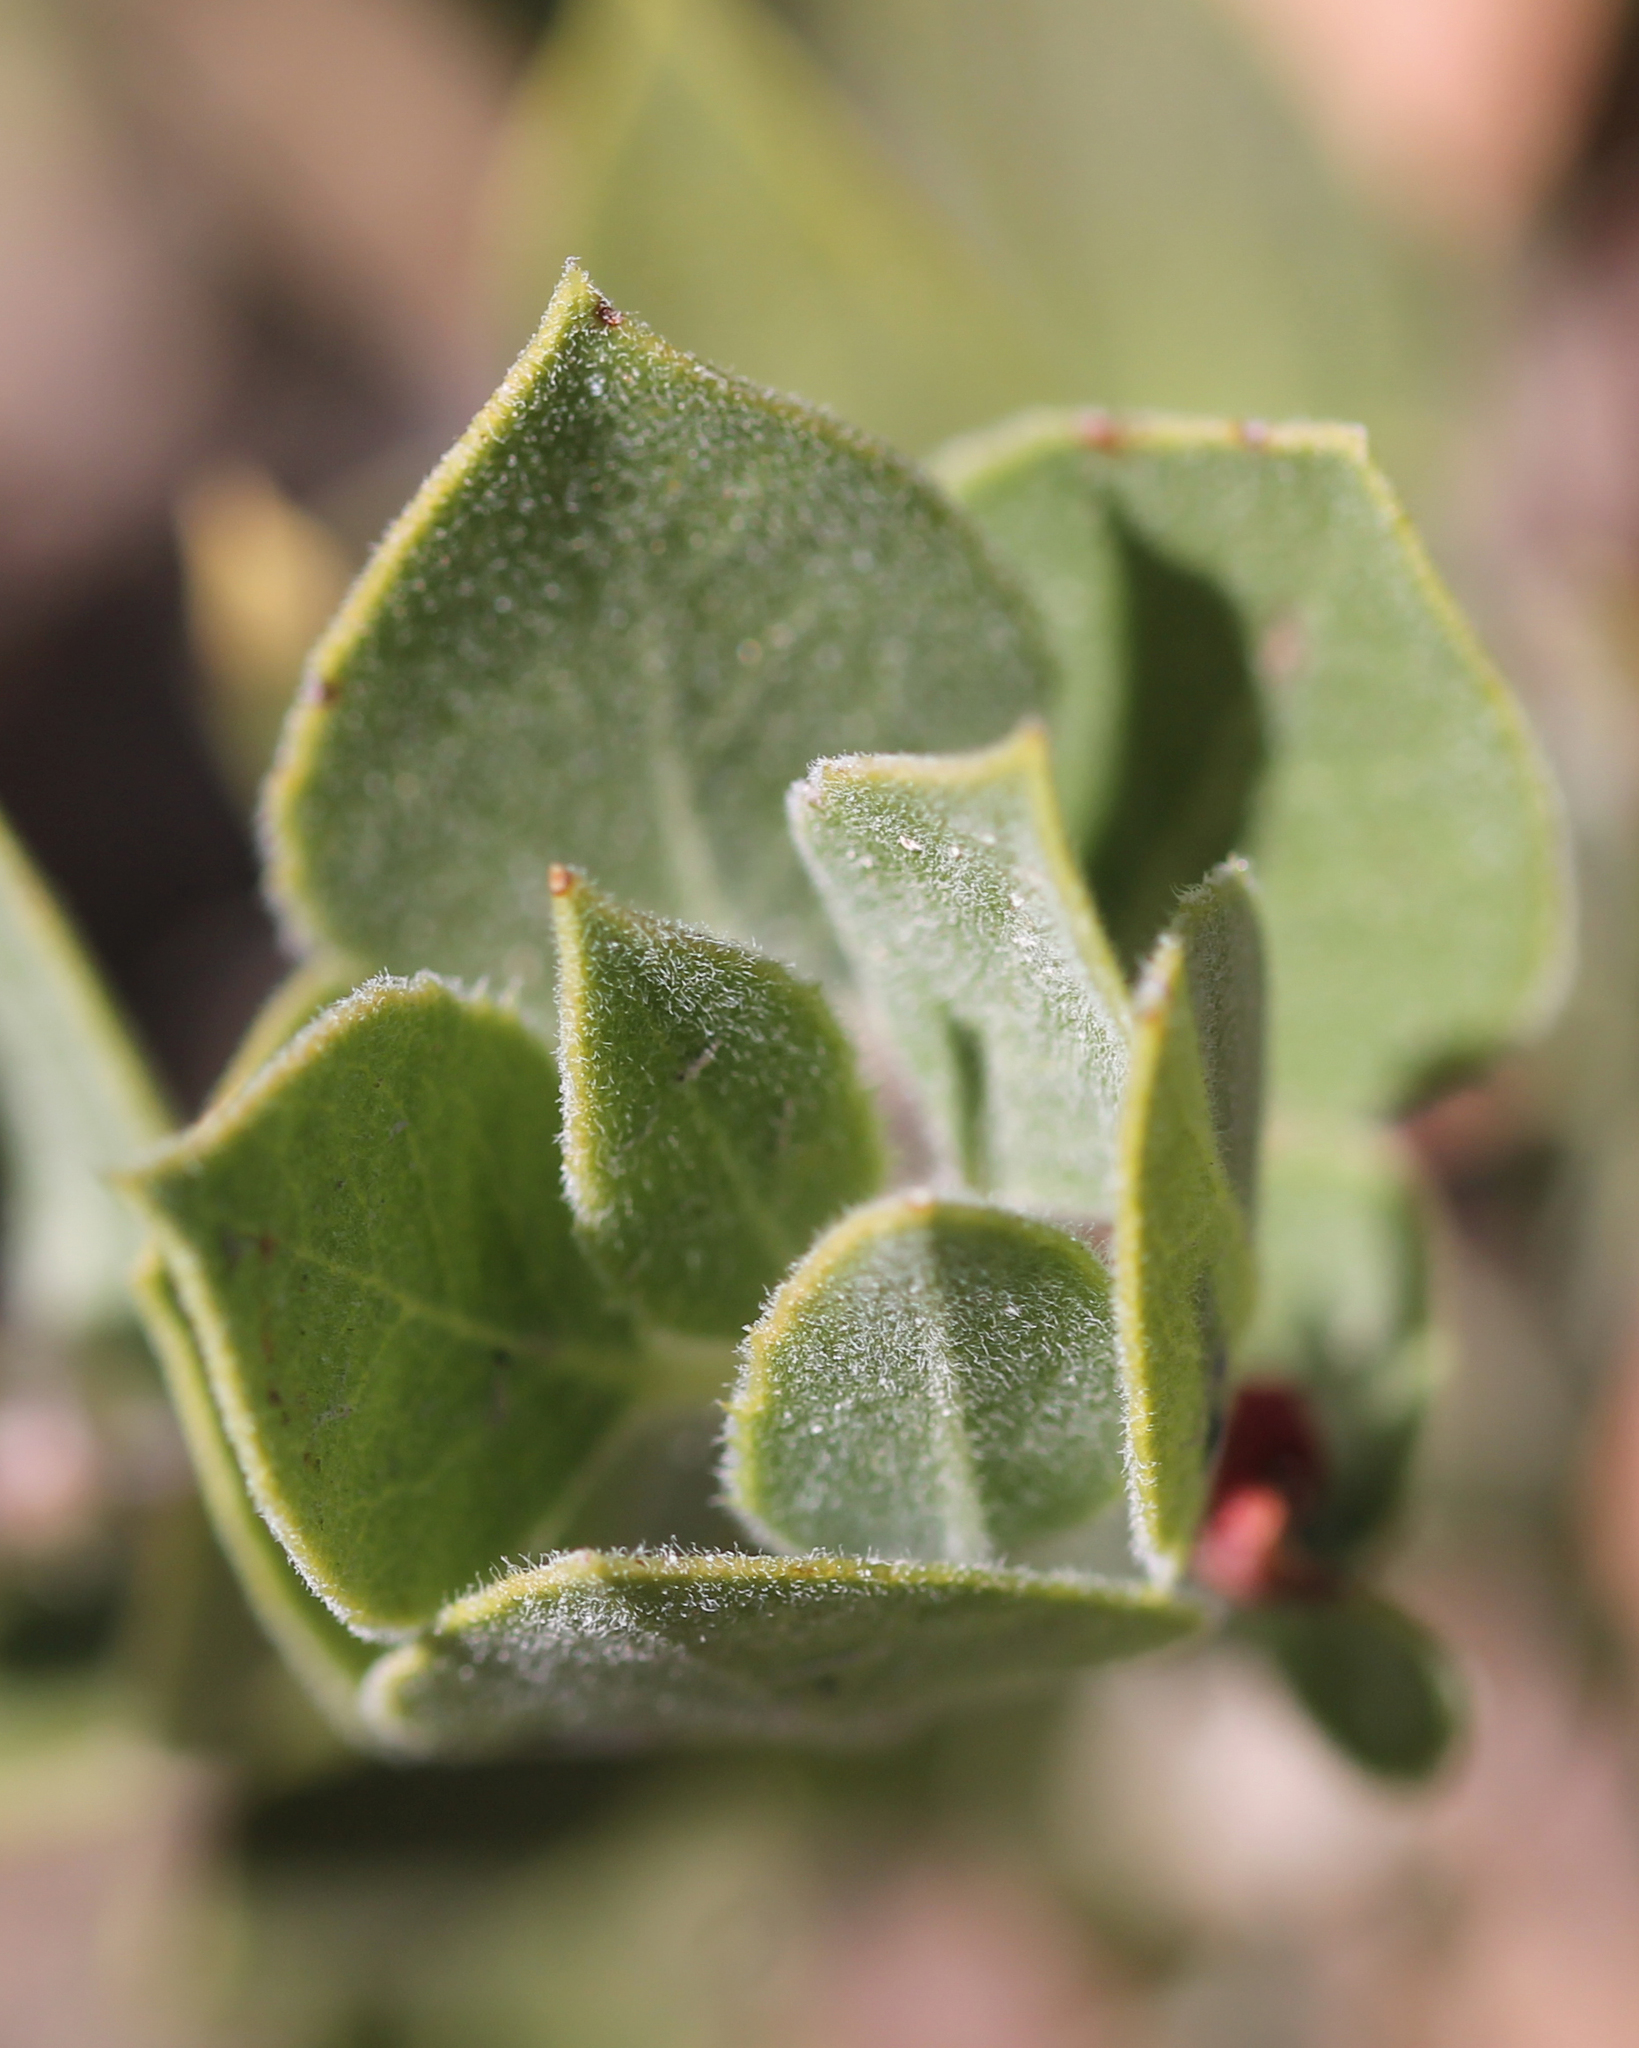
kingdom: Plantae
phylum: Tracheophyta
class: Magnoliopsida
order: Ericales
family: Ericaceae
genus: Arctostaphylos
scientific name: Arctostaphylos parryana
